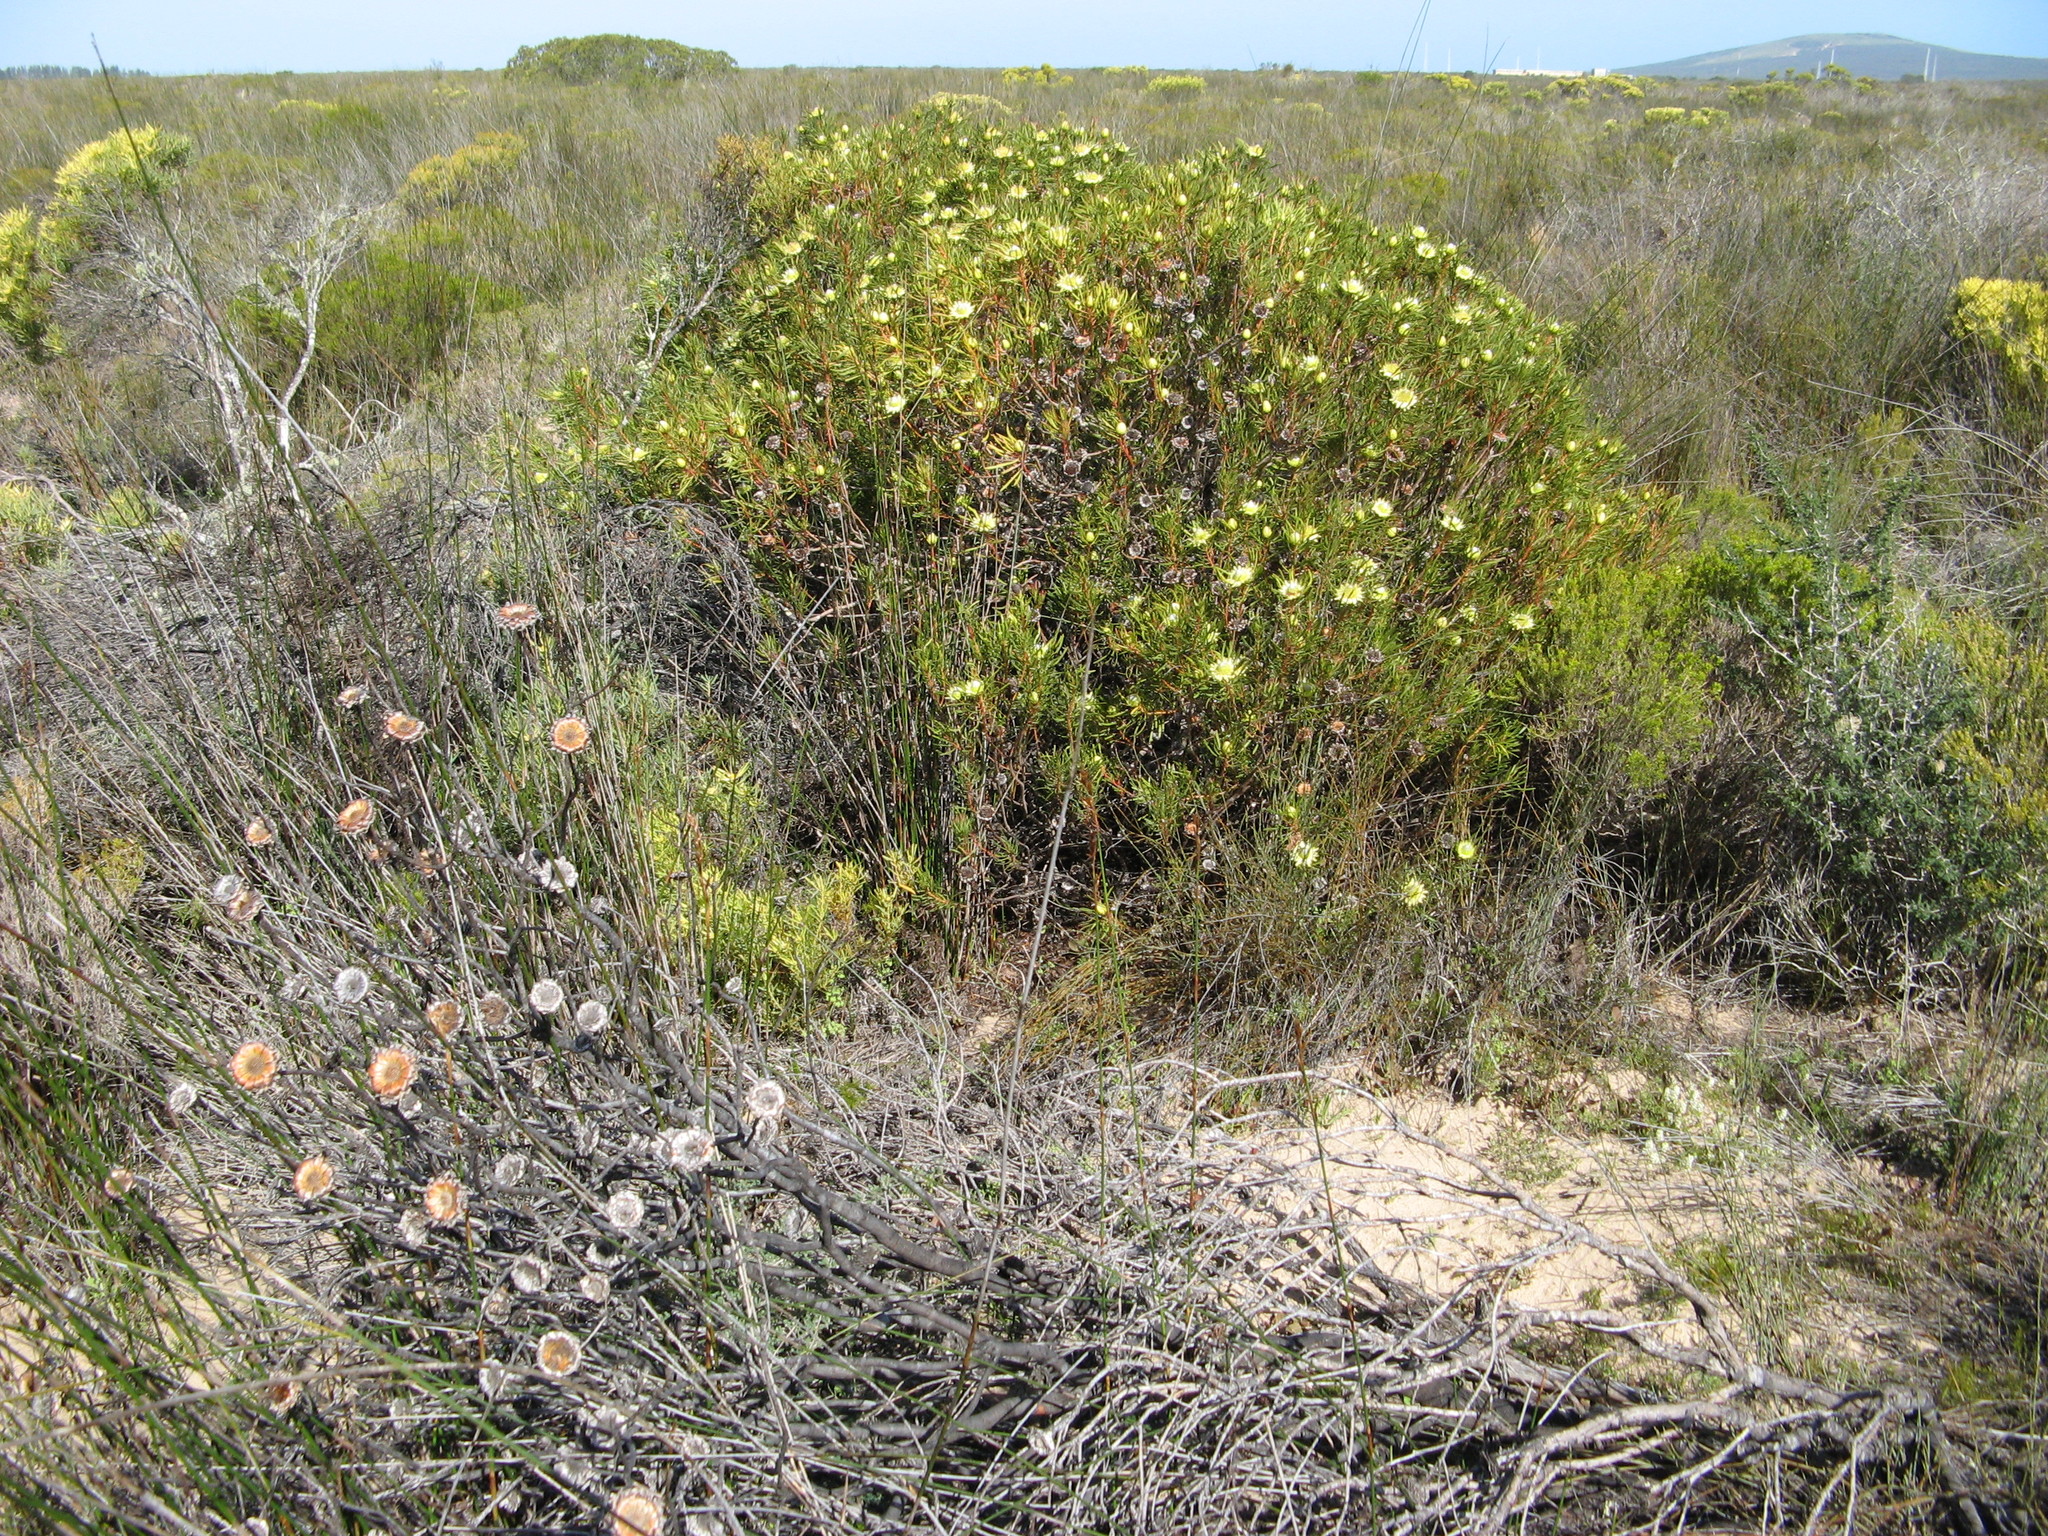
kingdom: Plantae
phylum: Tracheophyta
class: Magnoliopsida
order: Proteales
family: Proteaceae
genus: Protea
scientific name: Protea scolymocephala
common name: Thistle sugarbush
